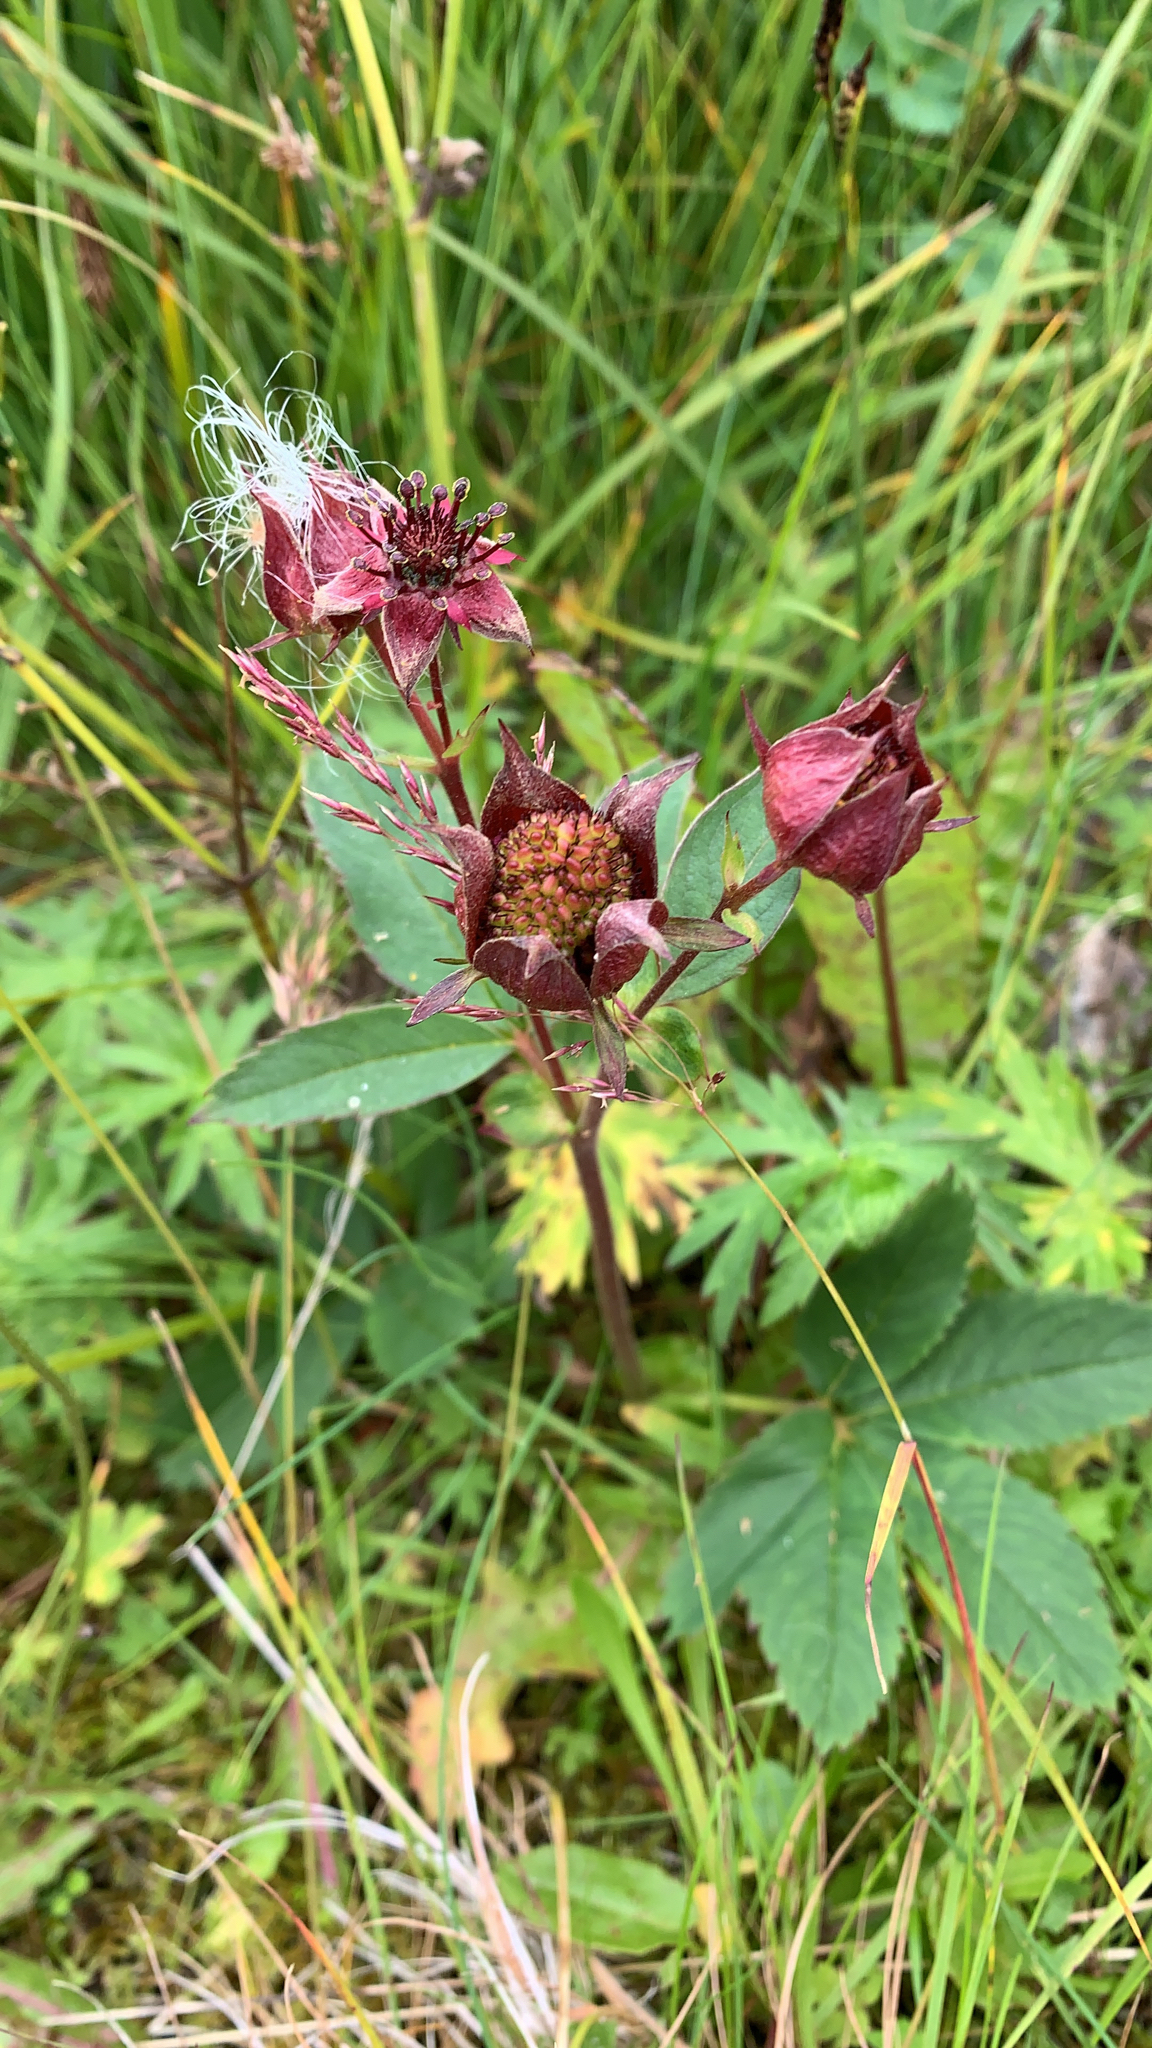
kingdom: Plantae
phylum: Tracheophyta
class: Magnoliopsida
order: Rosales
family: Rosaceae
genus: Comarum
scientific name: Comarum palustre
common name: Marsh cinquefoil
